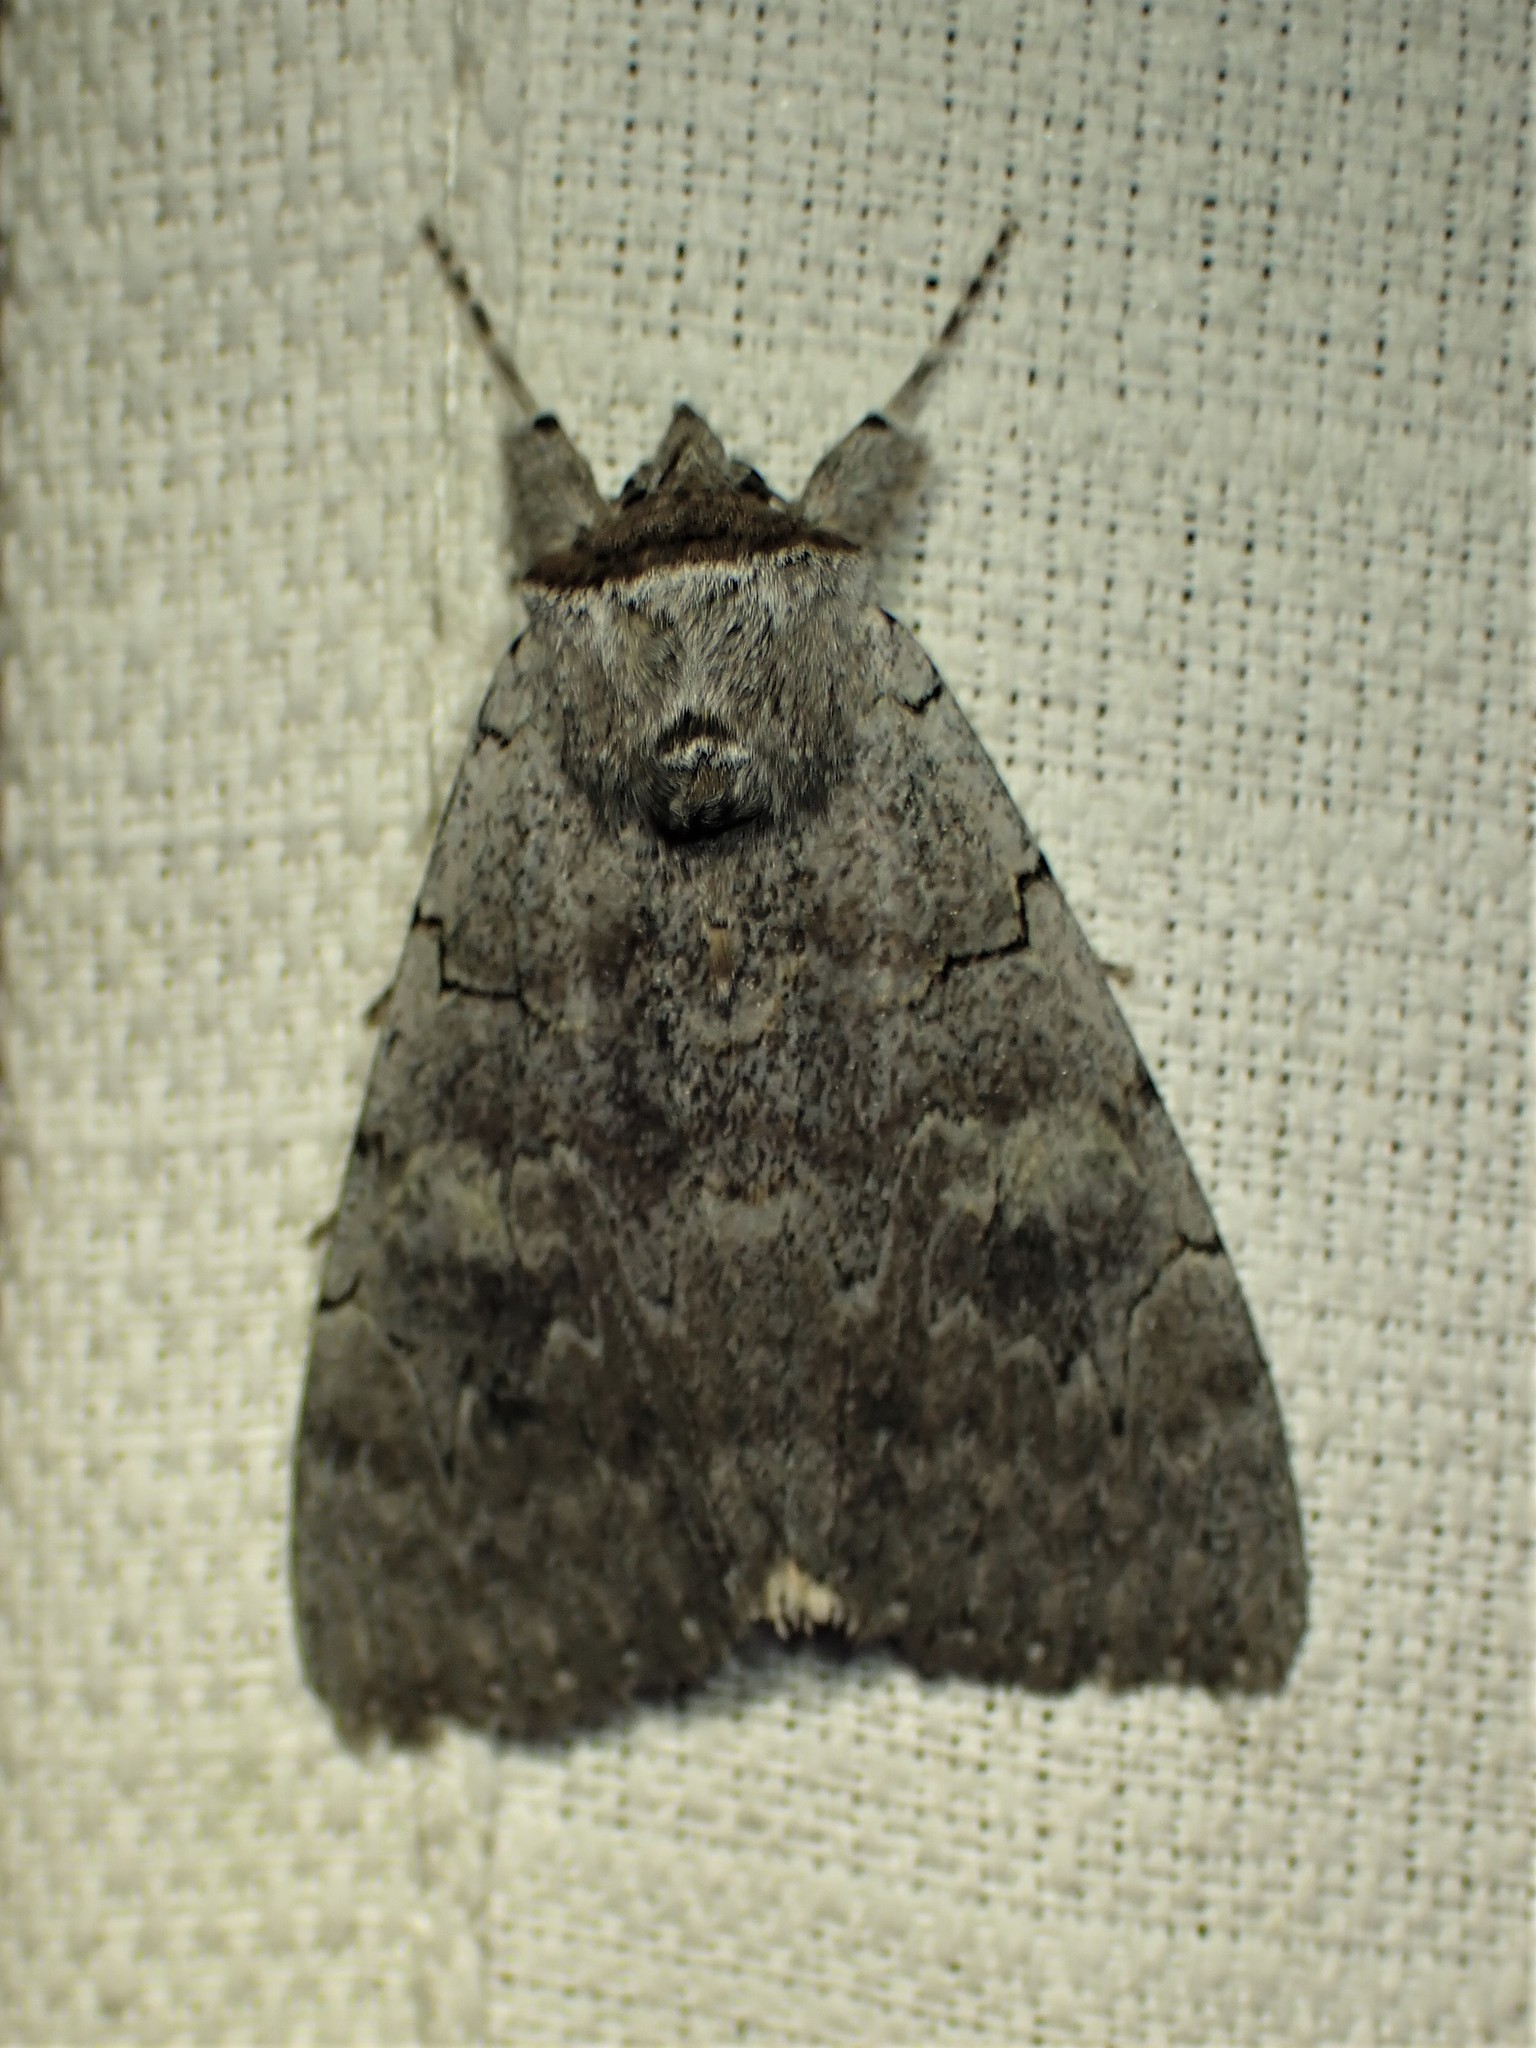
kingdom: Animalia
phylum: Arthropoda
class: Insecta
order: Lepidoptera
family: Erebidae
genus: Catocala
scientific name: Catocala concumbens
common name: Pink underwing
